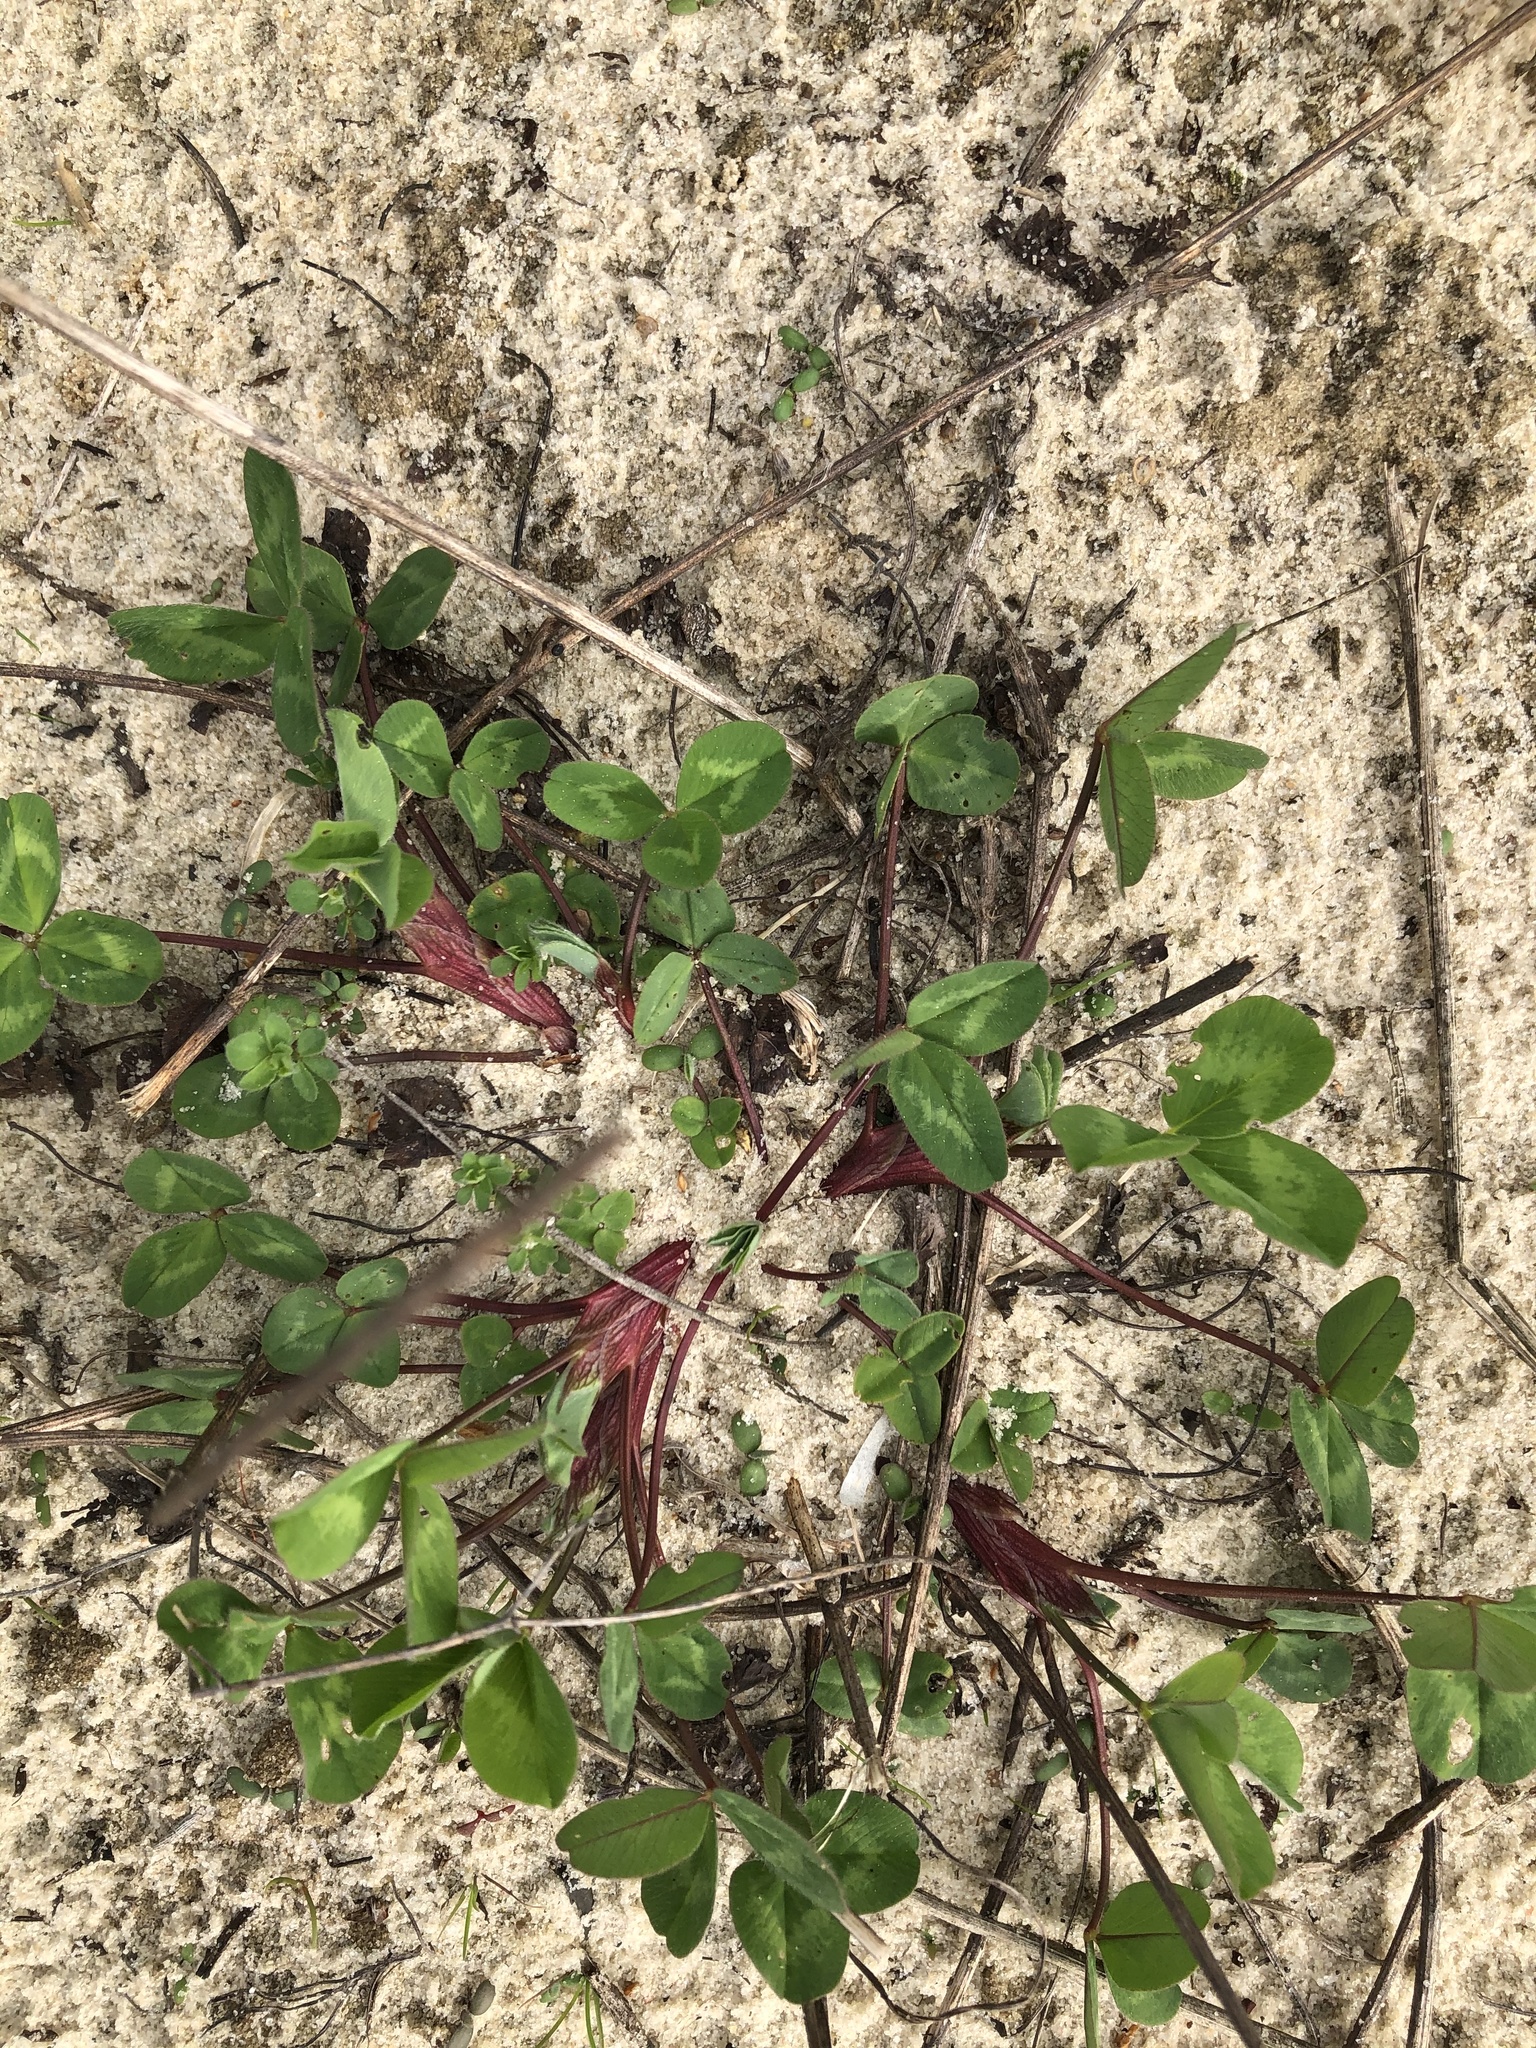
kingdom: Plantae
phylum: Tracheophyta
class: Magnoliopsida
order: Fabales
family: Fabaceae
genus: Trifolium
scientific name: Trifolium pratense
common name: Red clover
